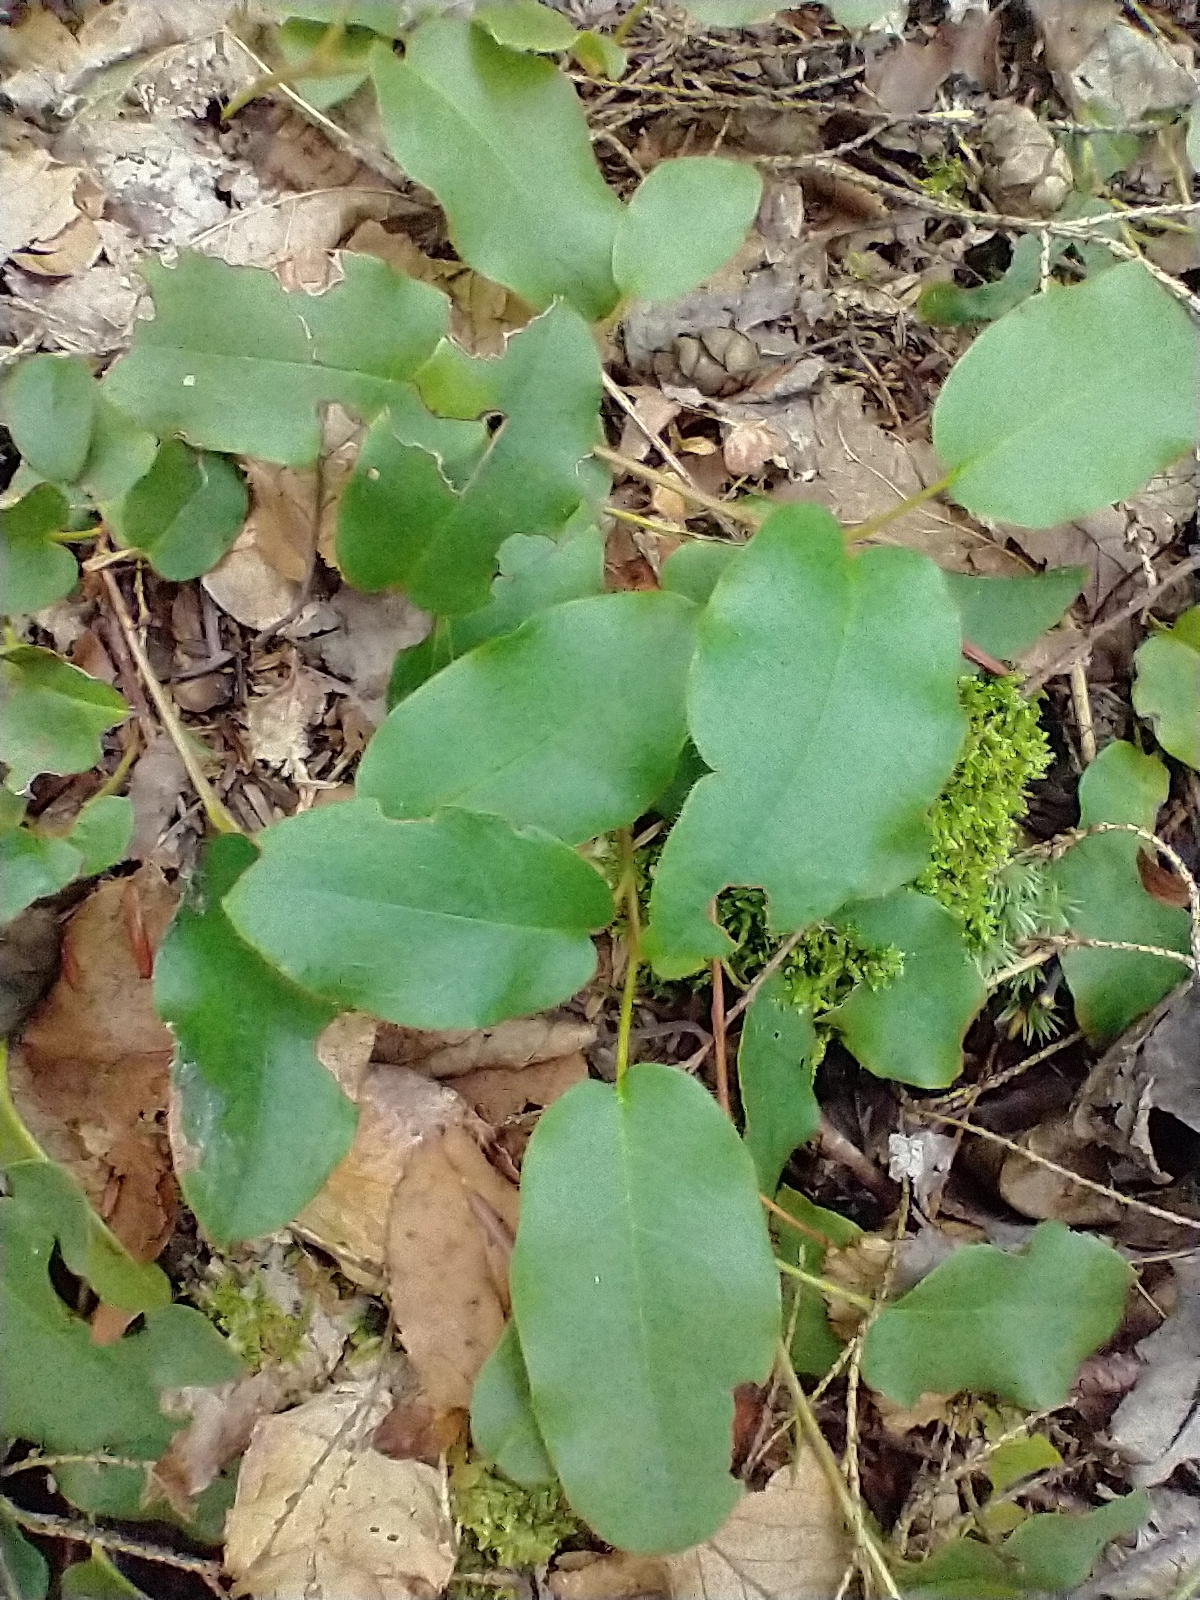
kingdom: Plantae
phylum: Tracheophyta
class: Magnoliopsida
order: Ericales
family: Ericaceae
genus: Epigaea
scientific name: Epigaea repens
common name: Gravelroot
